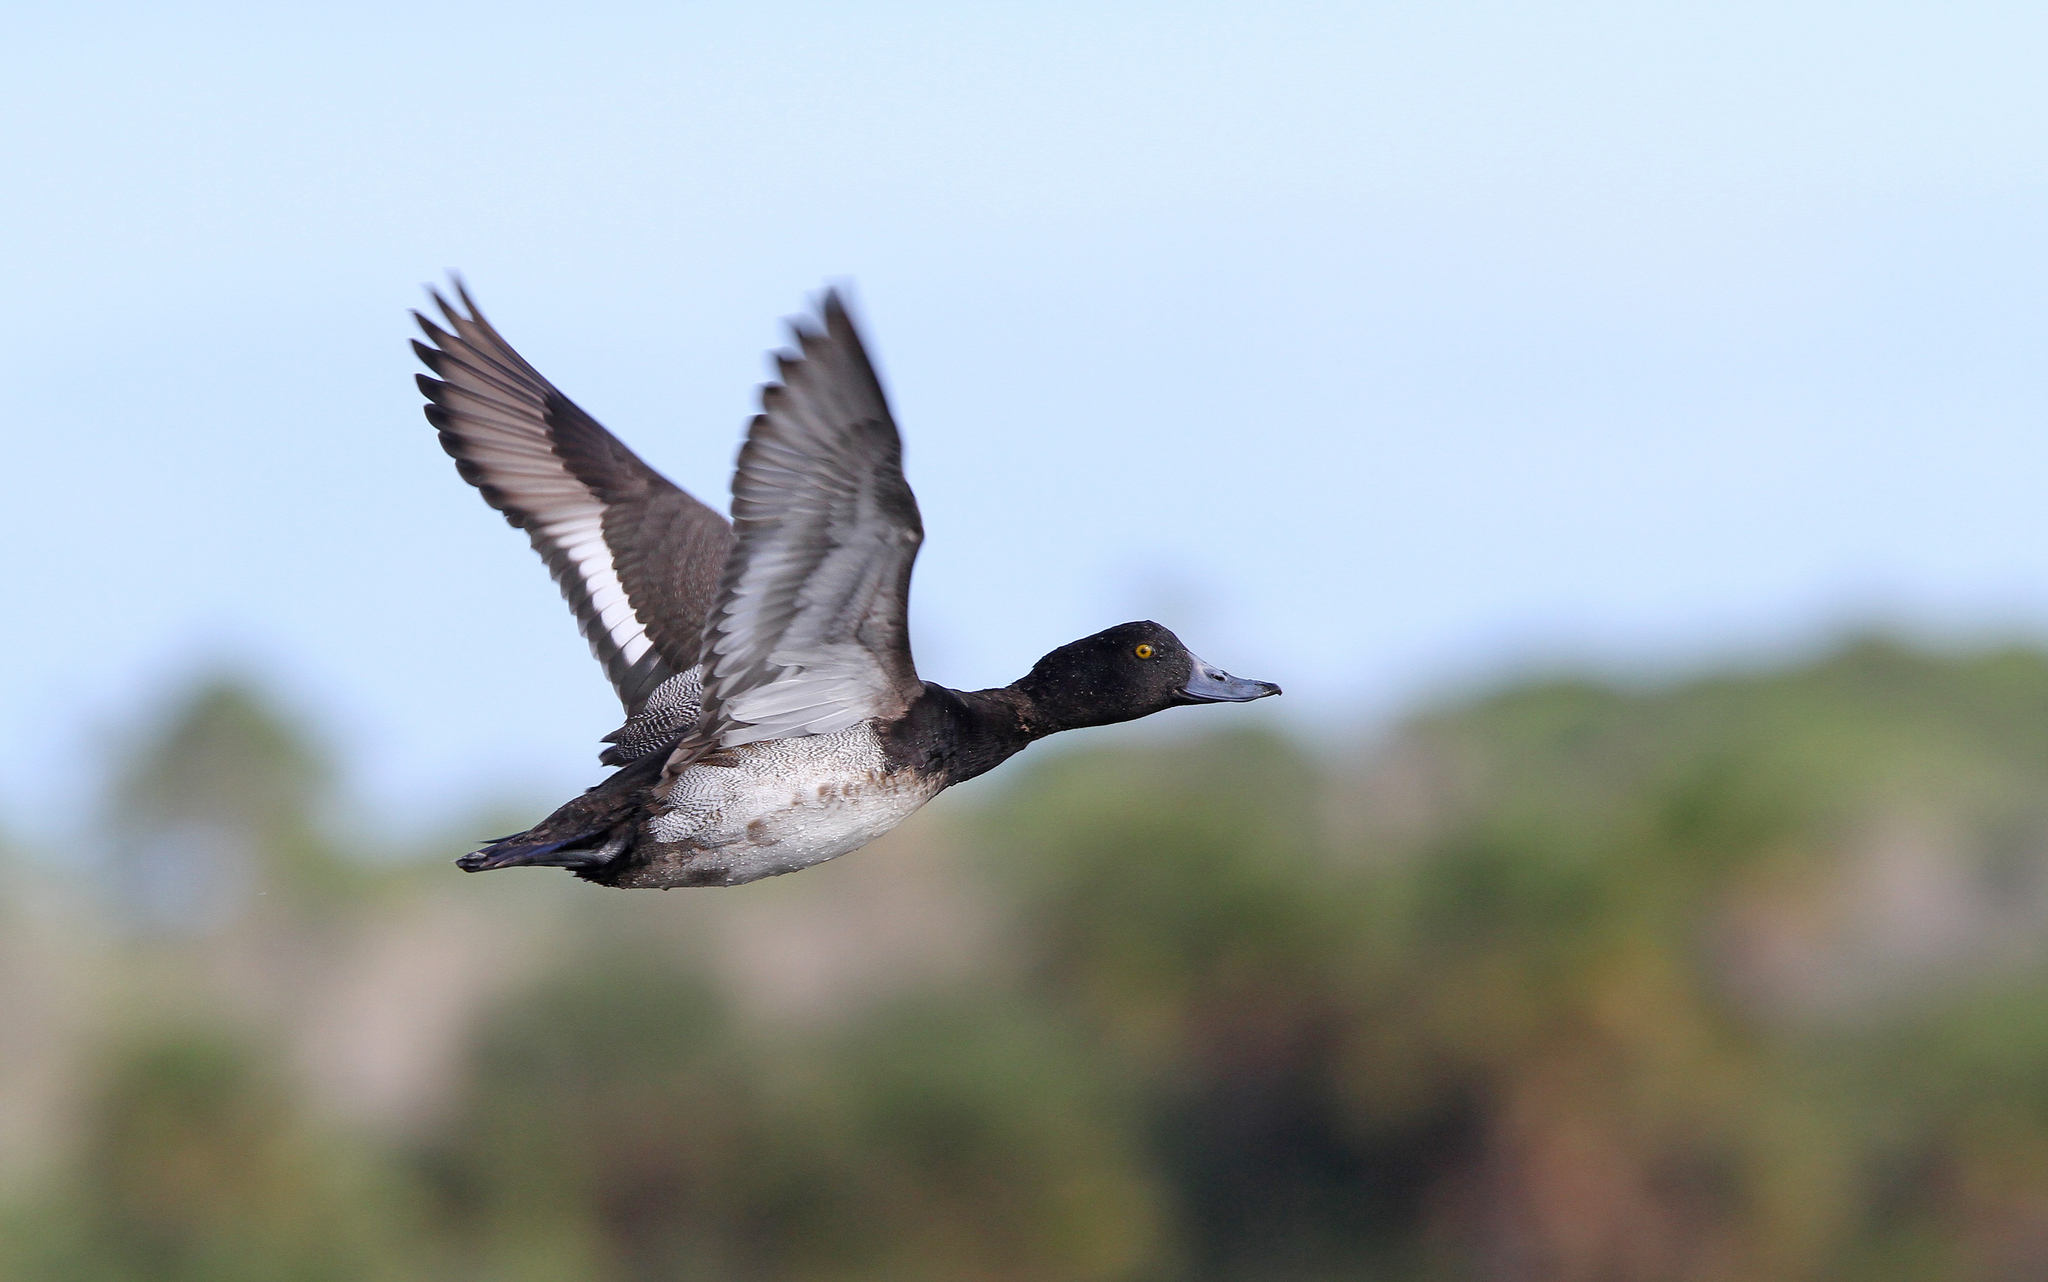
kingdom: Animalia
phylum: Chordata
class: Aves
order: Anseriformes
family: Anatidae
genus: Aythya
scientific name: Aythya affinis
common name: Lesser scaup
